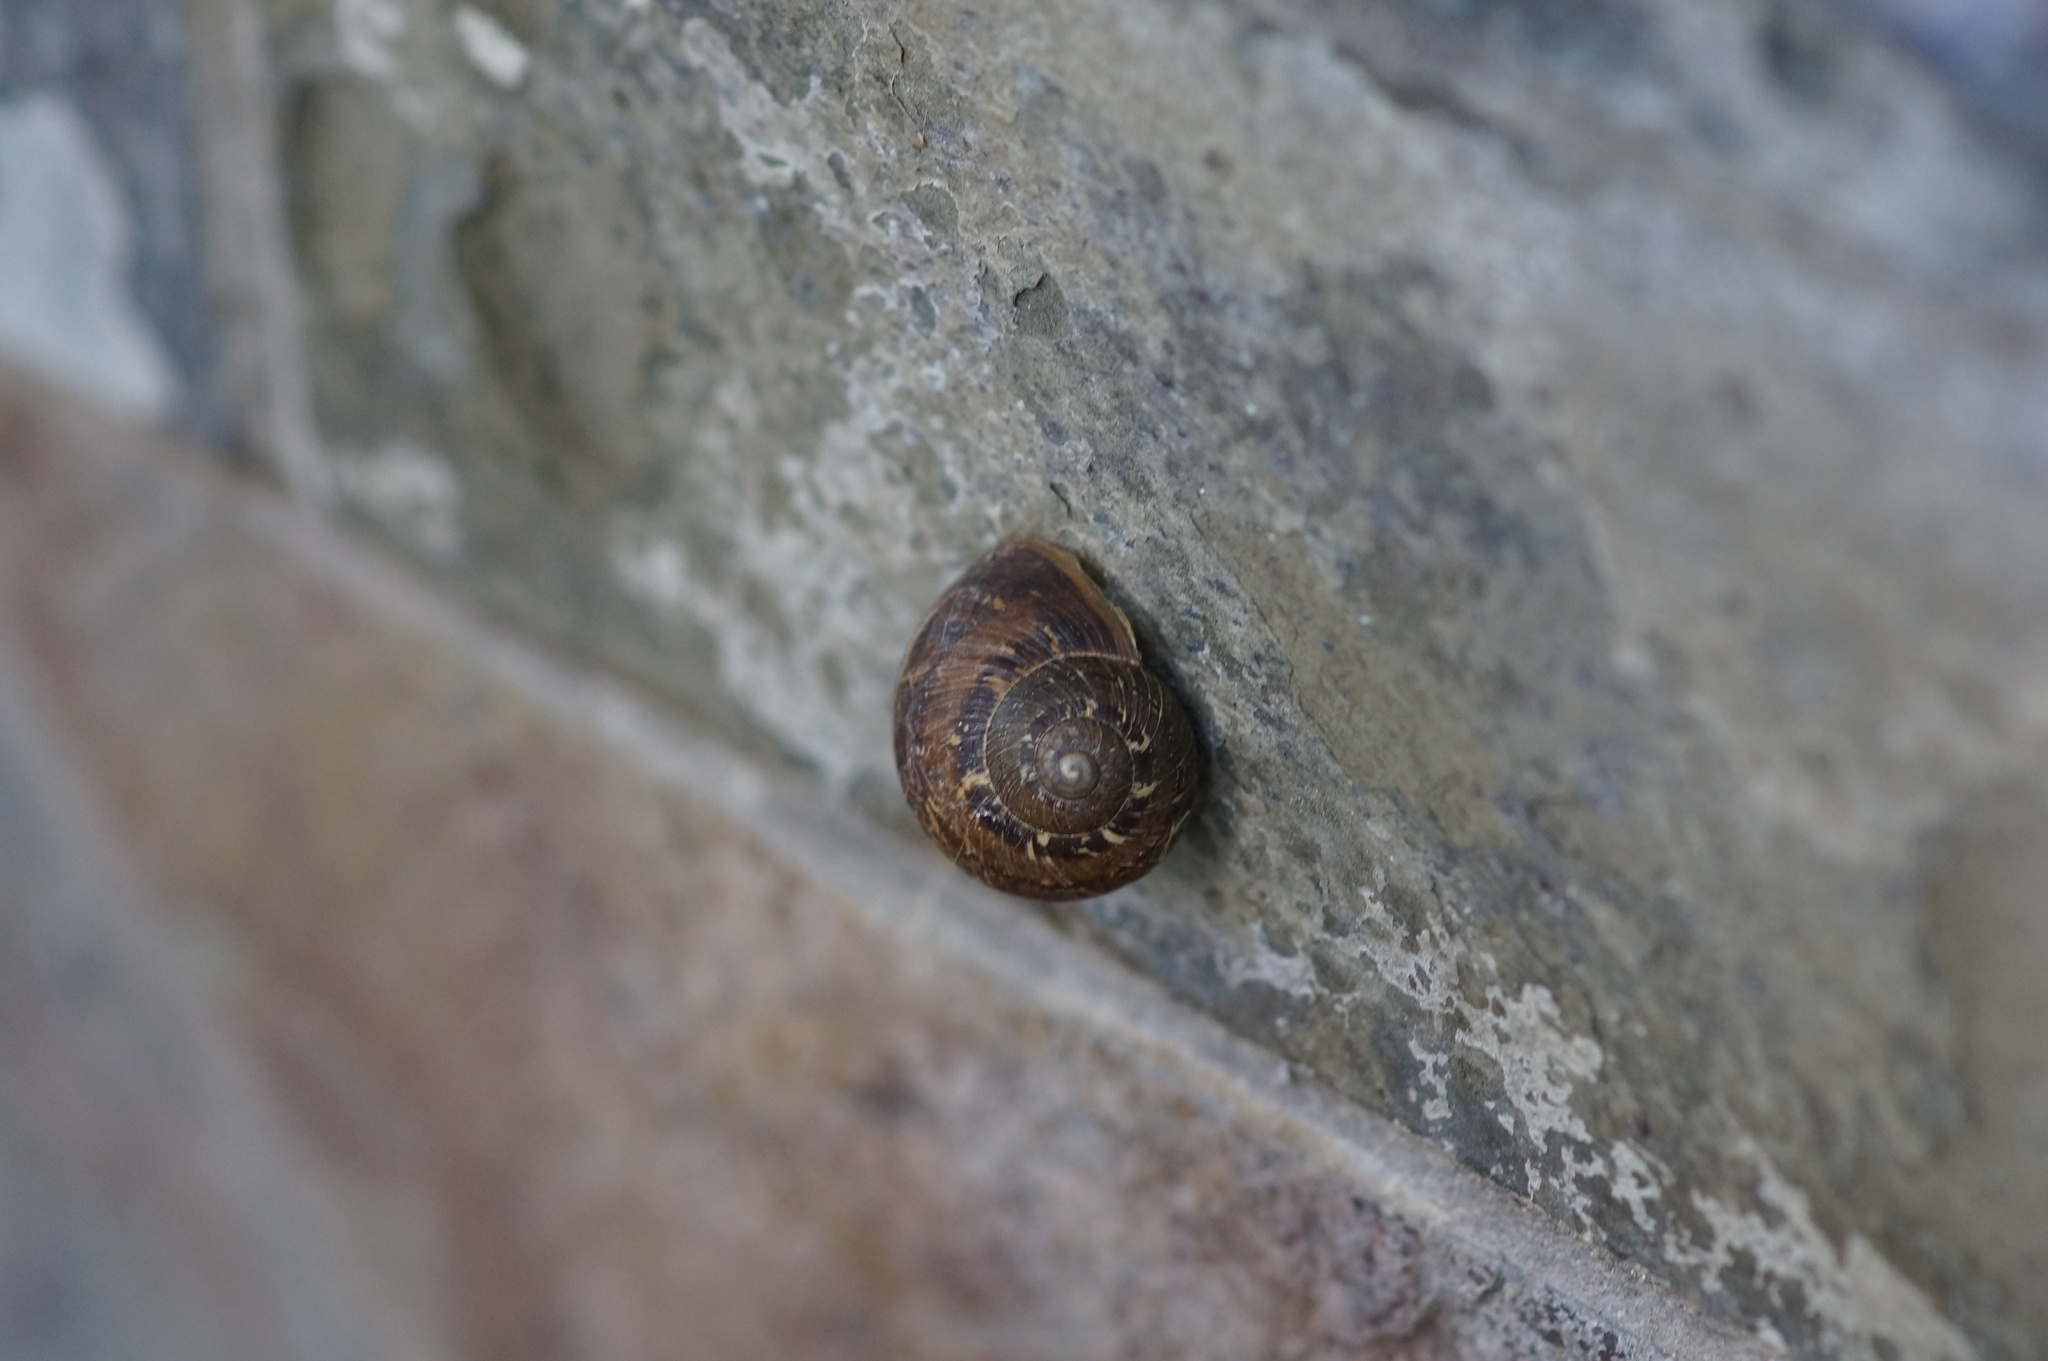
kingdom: Animalia
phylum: Mollusca
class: Gastropoda
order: Stylommatophora
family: Helicidae
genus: Cornu
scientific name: Cornu aspersum
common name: Brown garden snail
